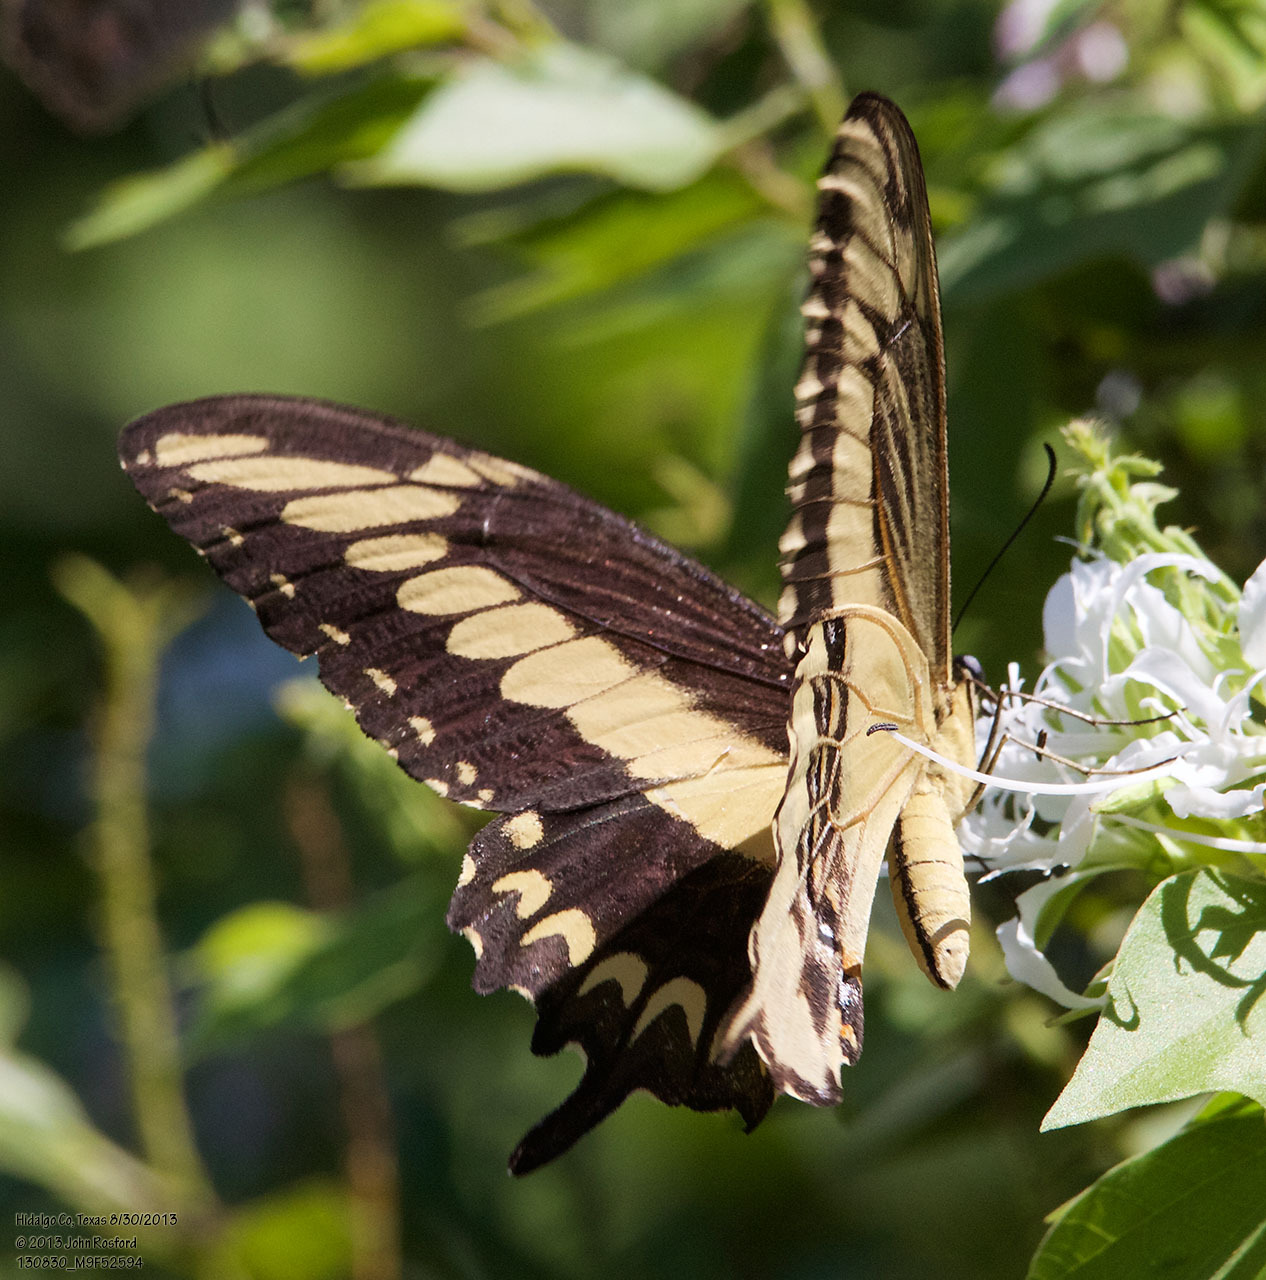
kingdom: Animalia
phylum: Arthropoda
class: Insecta
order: Lepidoptera
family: Papilionidae
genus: Papilio
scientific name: Papilio ornythion
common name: Ornythion swallowtail
